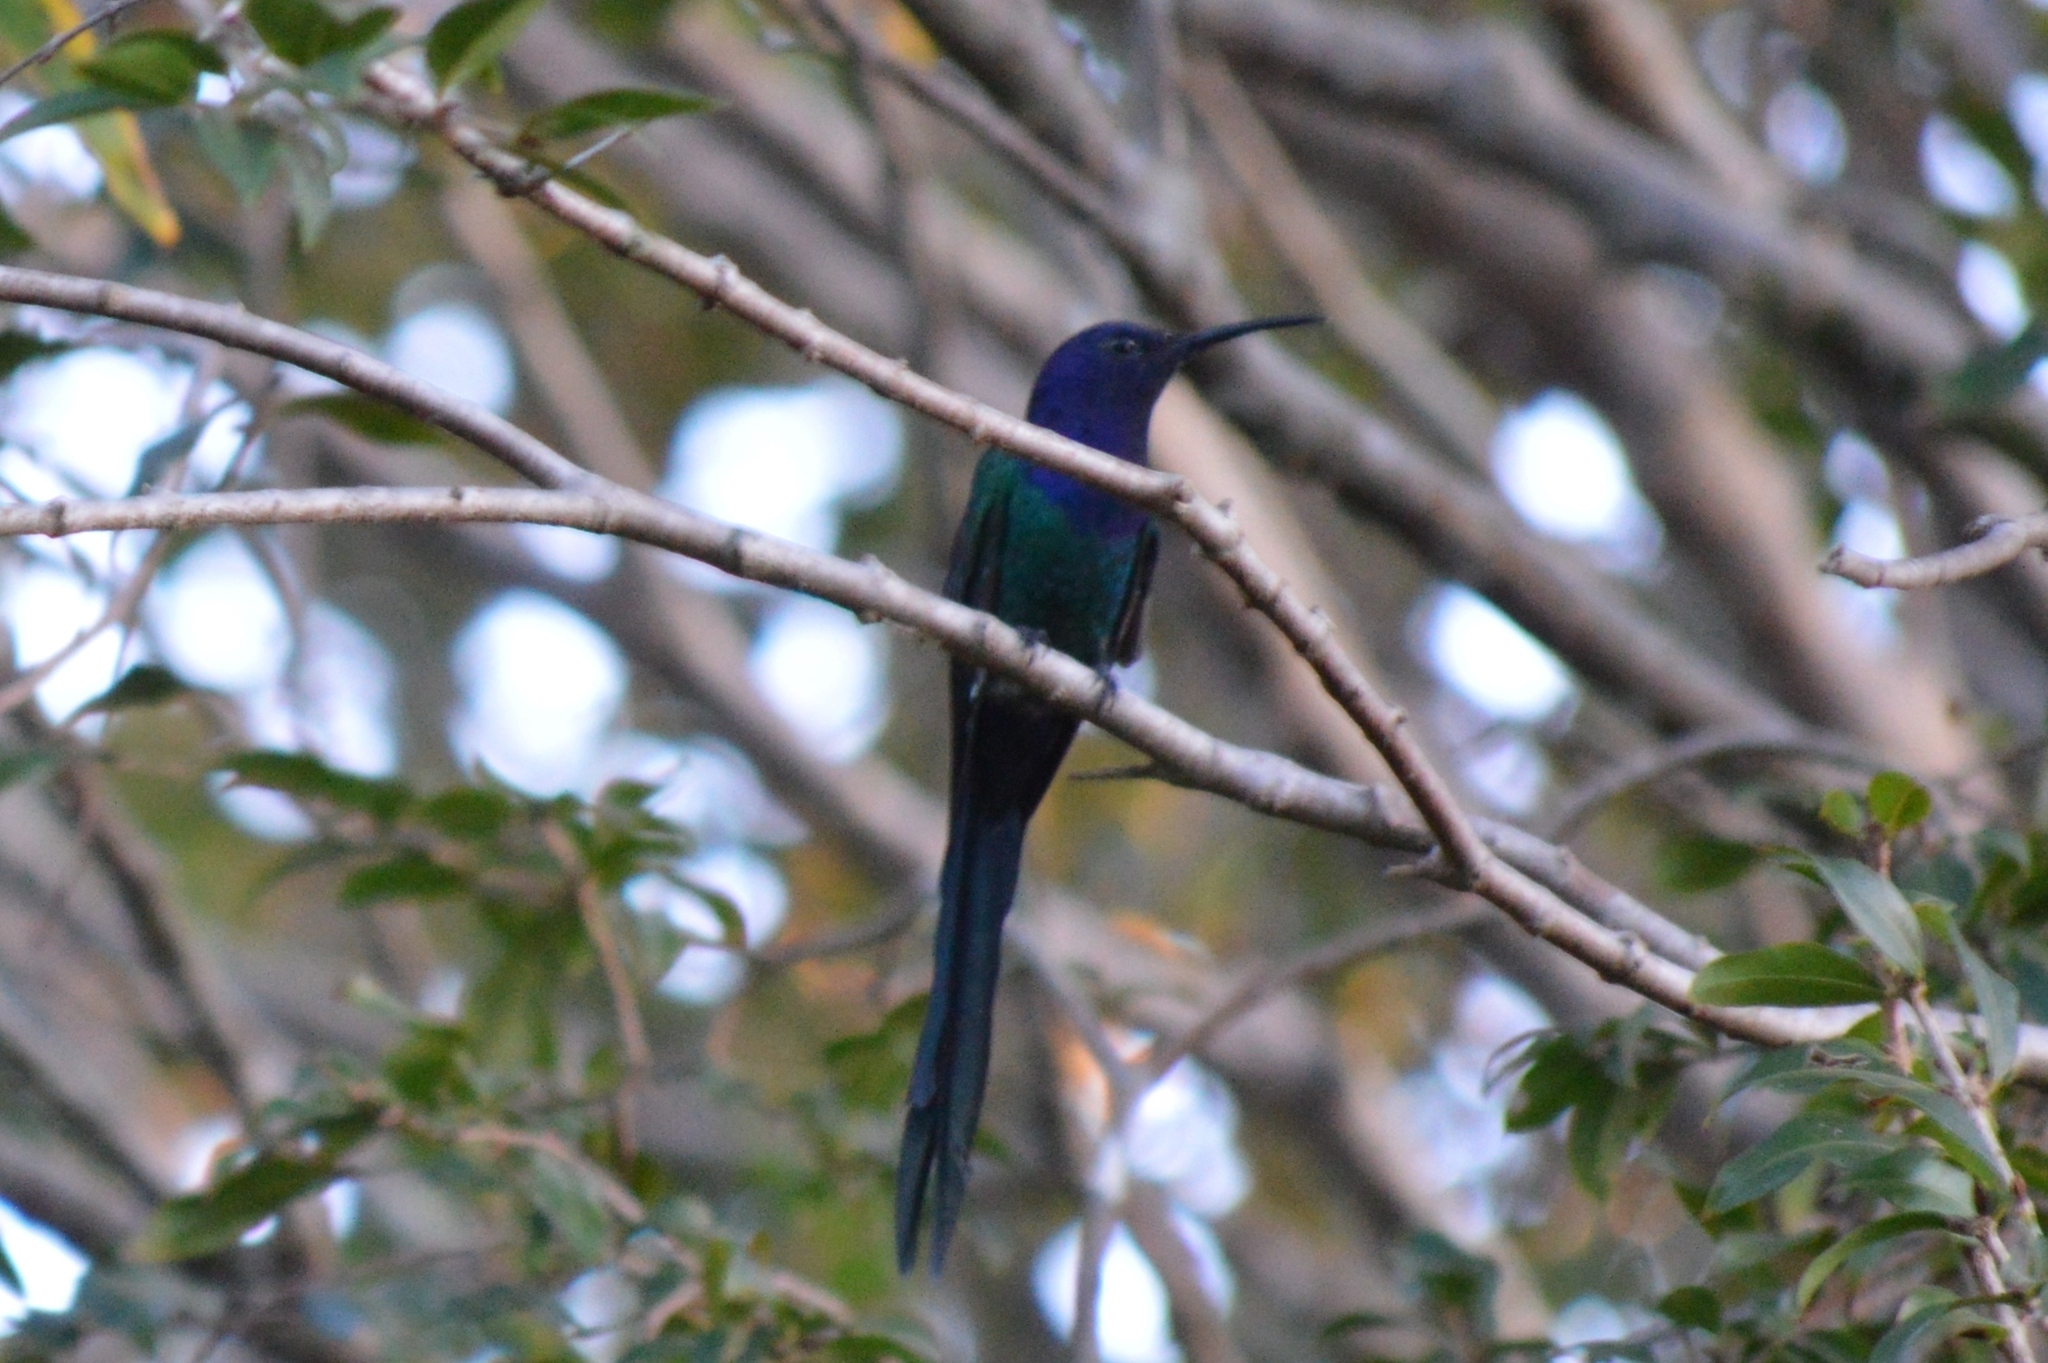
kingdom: Animalia
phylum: Chordata
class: Aves
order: Apodiformes
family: Trochilidae
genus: Eupetomena
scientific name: Eupetomena macroura
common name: Swallow-tailed hummingbird
